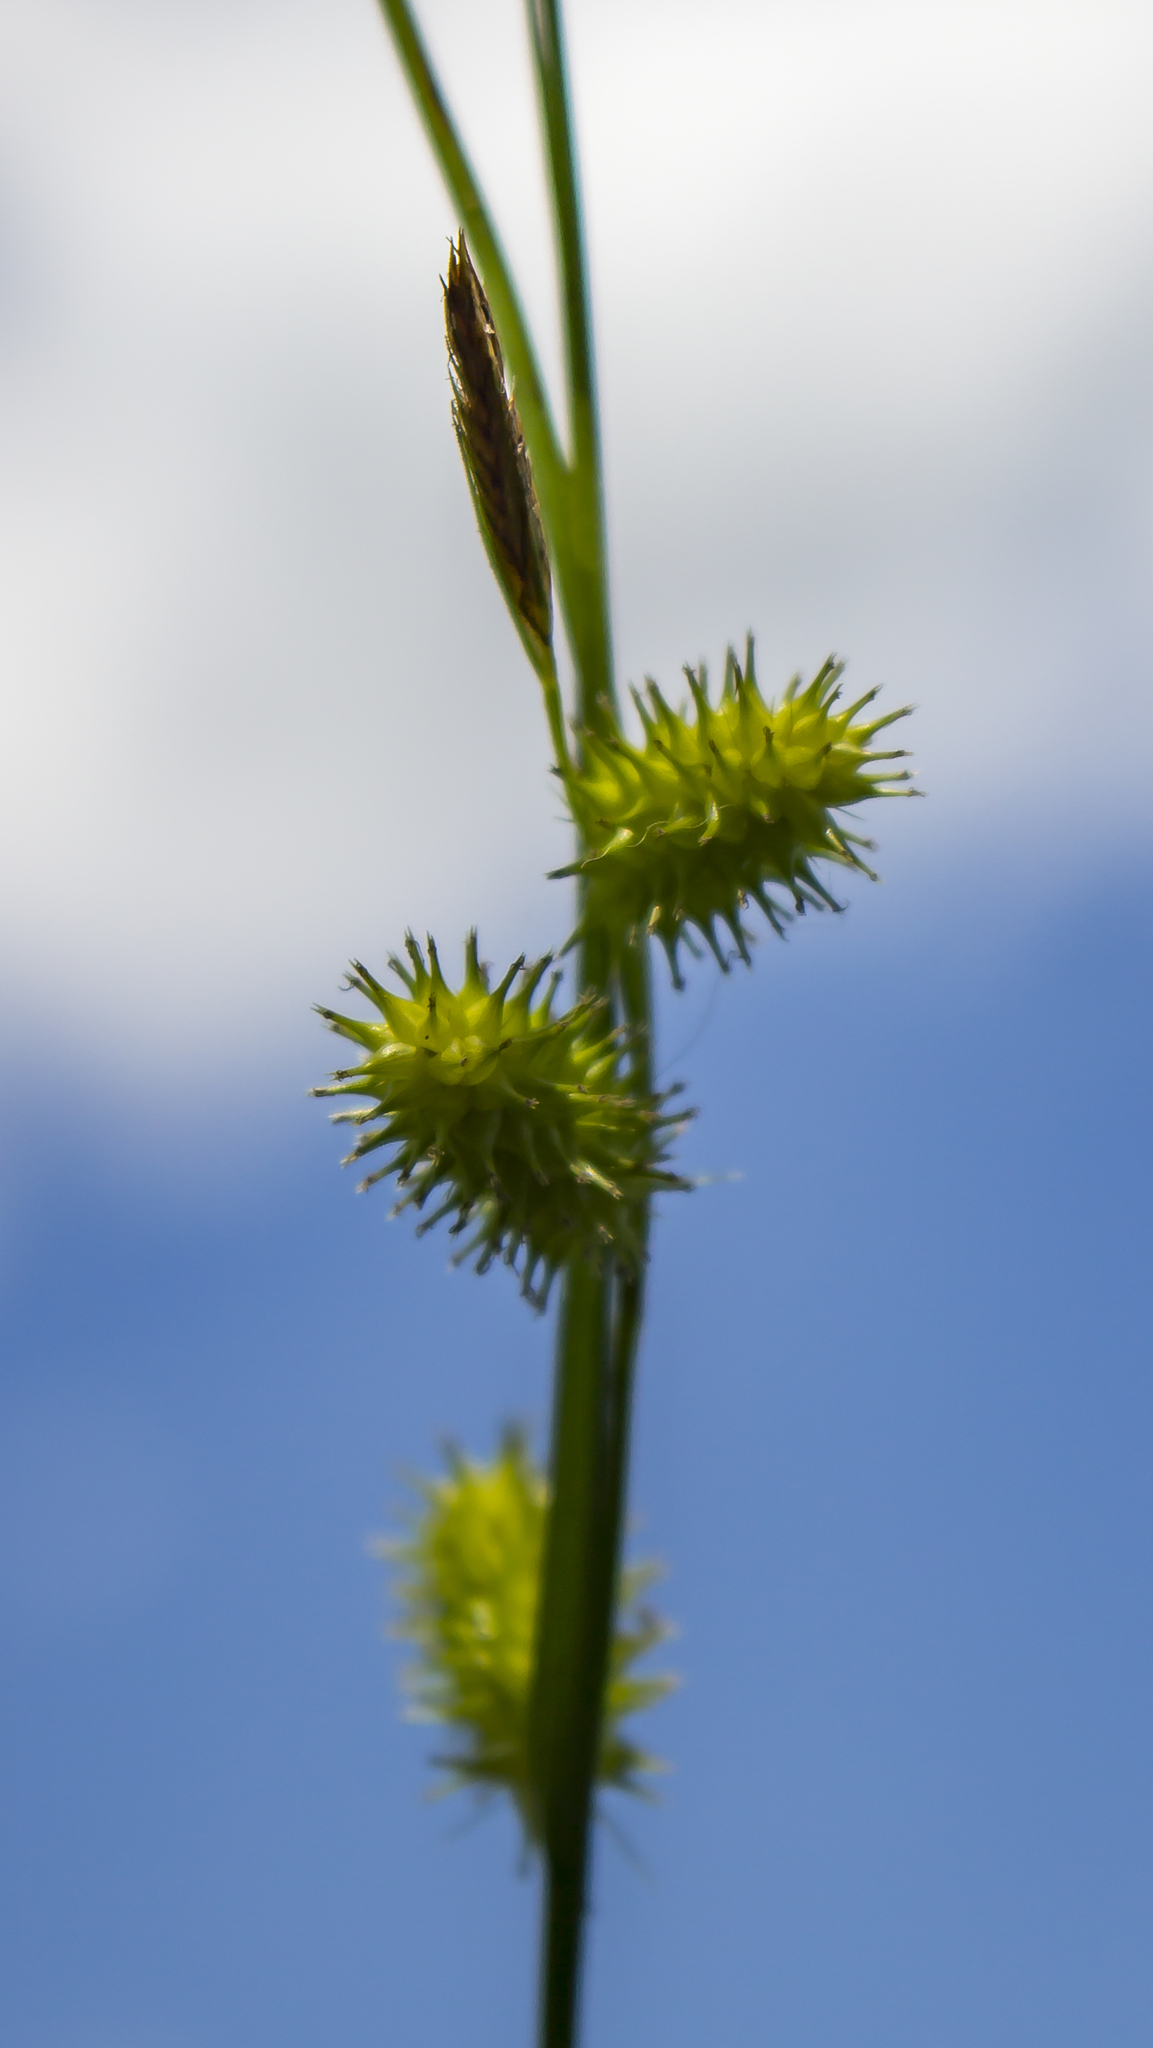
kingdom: Plantae
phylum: Tracheophyta
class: Liliopsida
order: Poales
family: Cyperaceae
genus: Carex
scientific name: Carex hystericina
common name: Bottlebrush sedge
